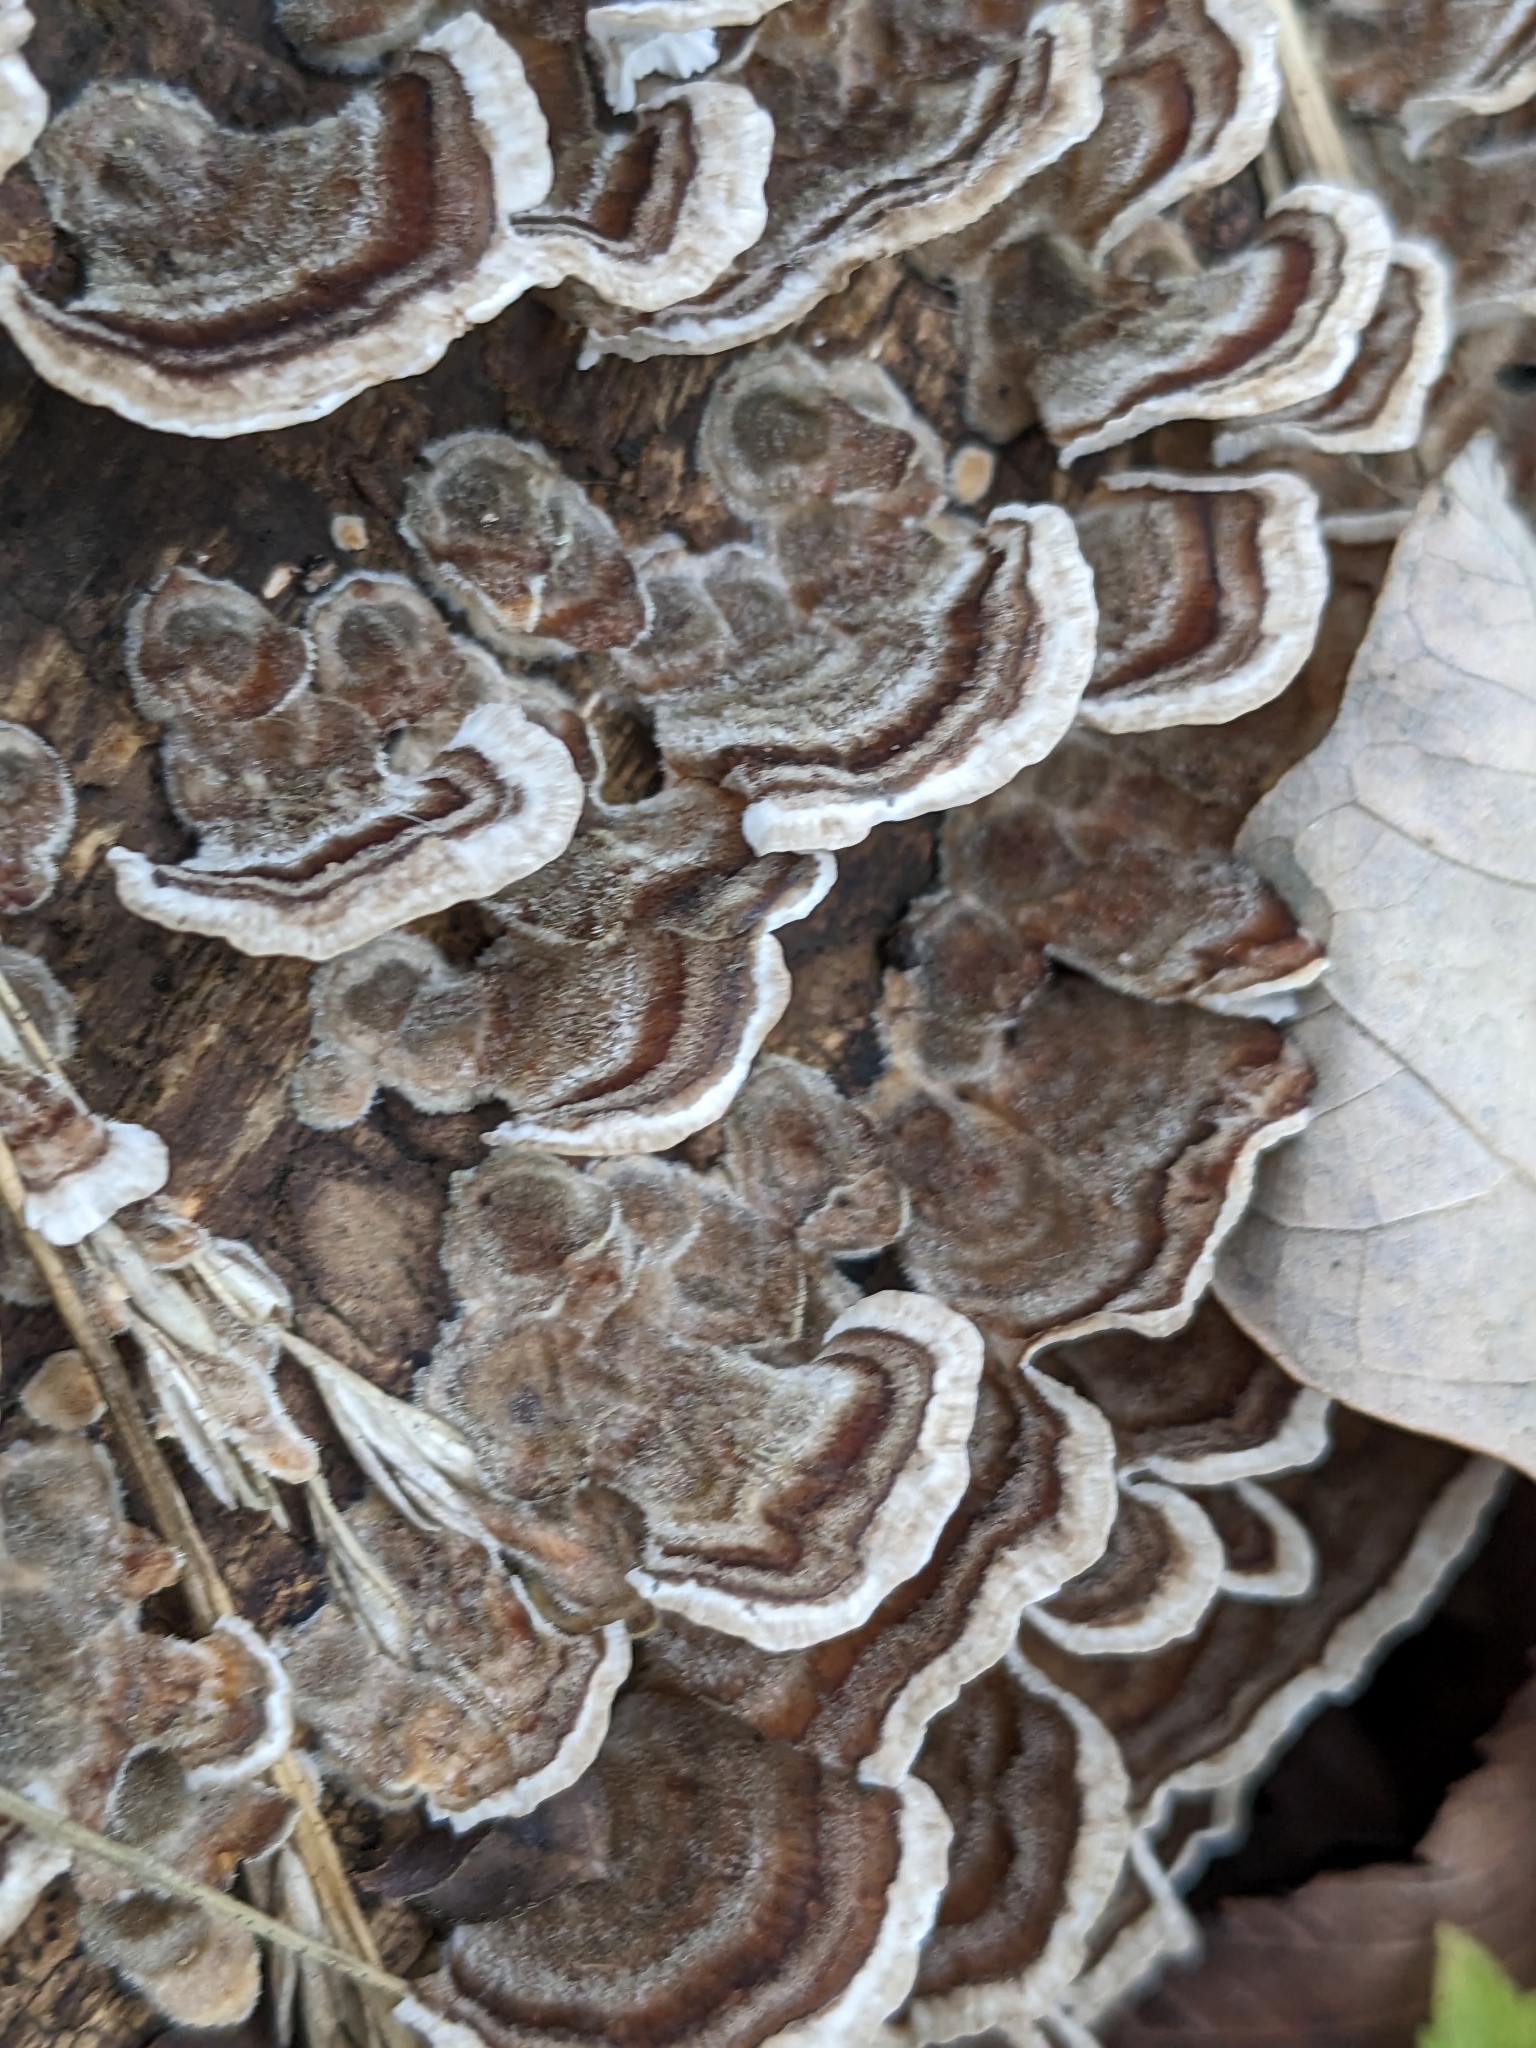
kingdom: Fungi
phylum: Basidiomycota
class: Agaricomycetes
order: Polyporales
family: Polyporaceae
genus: Trametes
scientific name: Trametes versicolor
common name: Turkeytail
